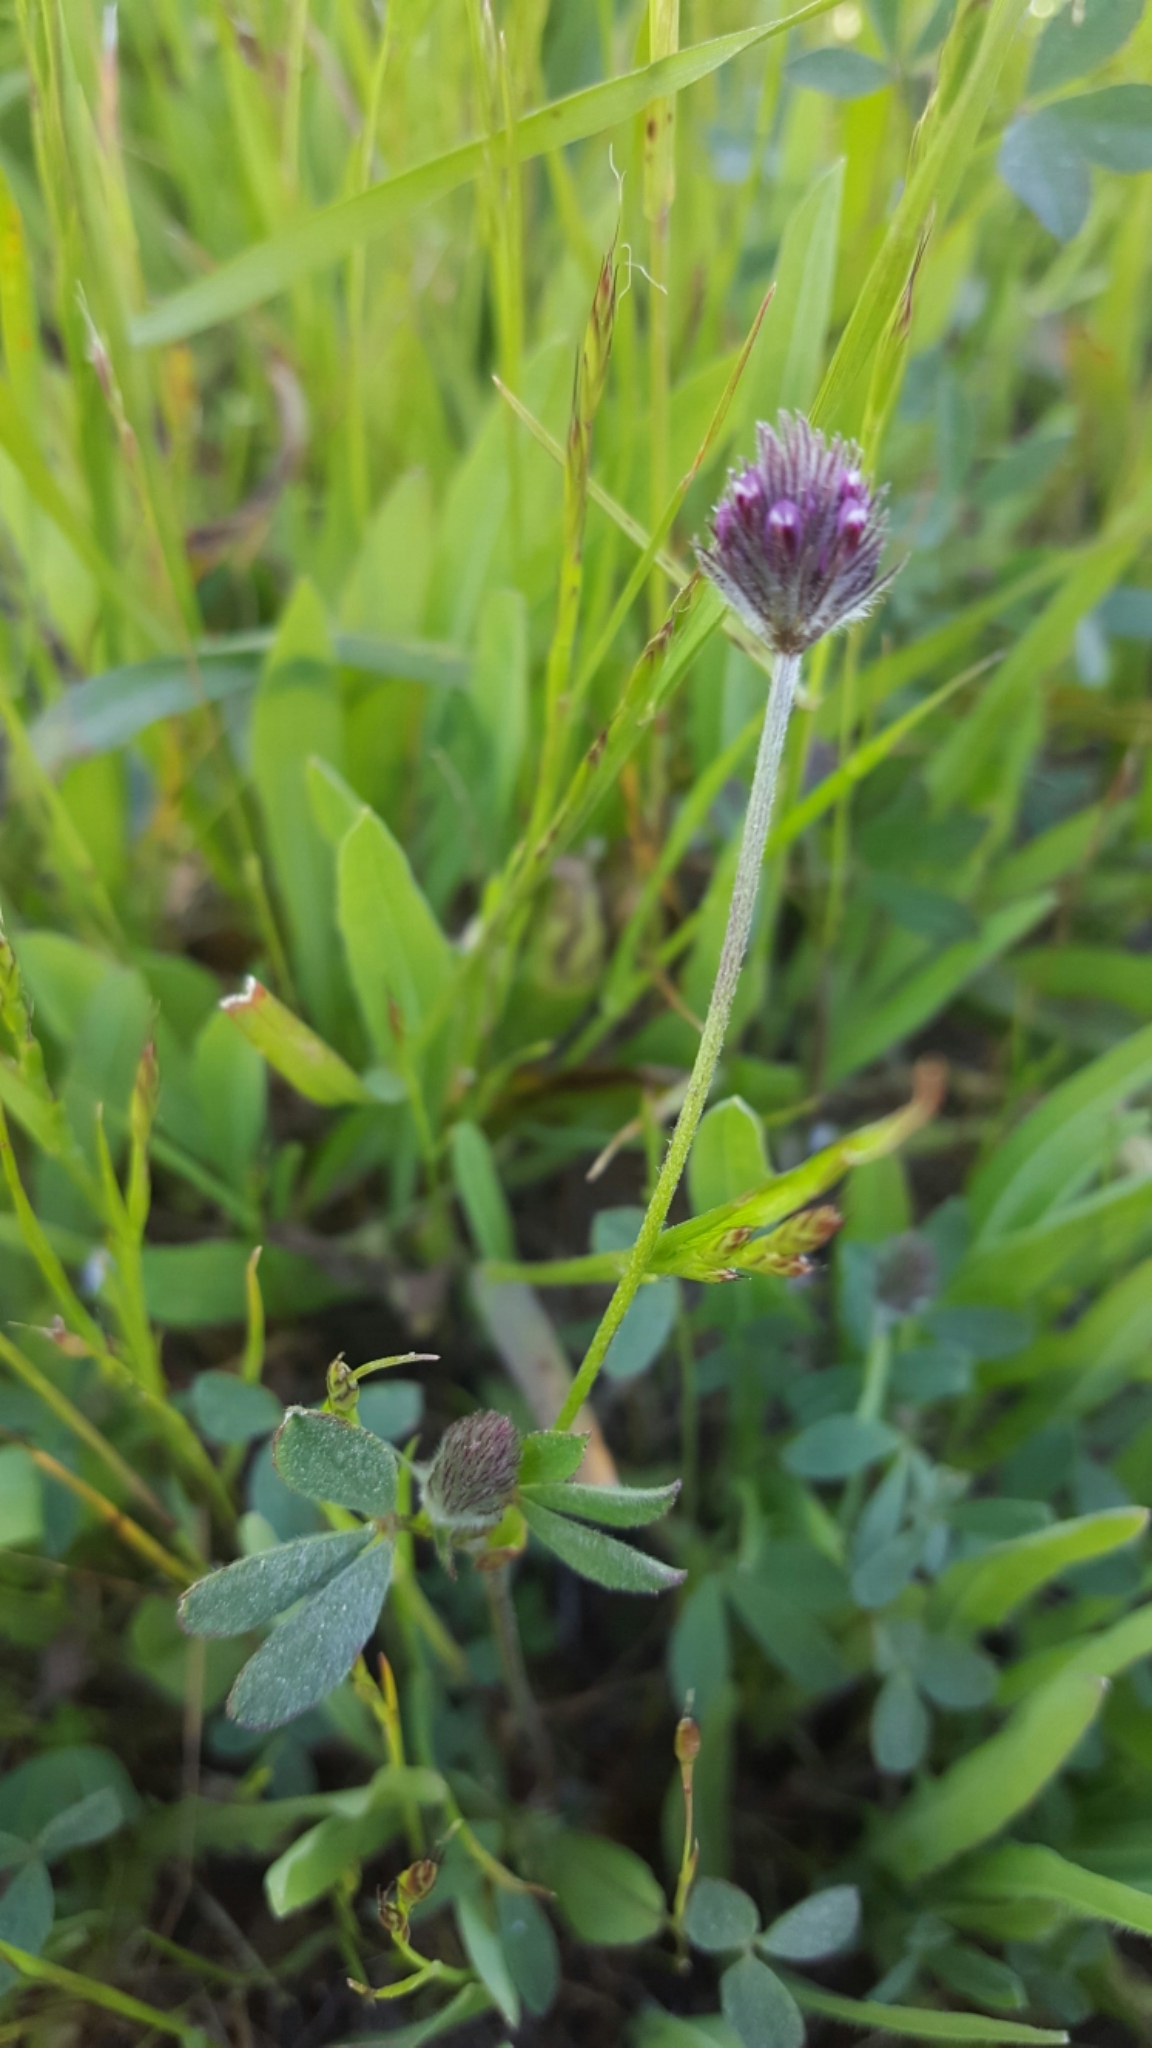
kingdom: Plantae
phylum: Tracheophyta
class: Magnoliopsida
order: Fabales
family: Fabaceae
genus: Trifolium
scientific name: Trifolium albopurpureum
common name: Rancheria clover
